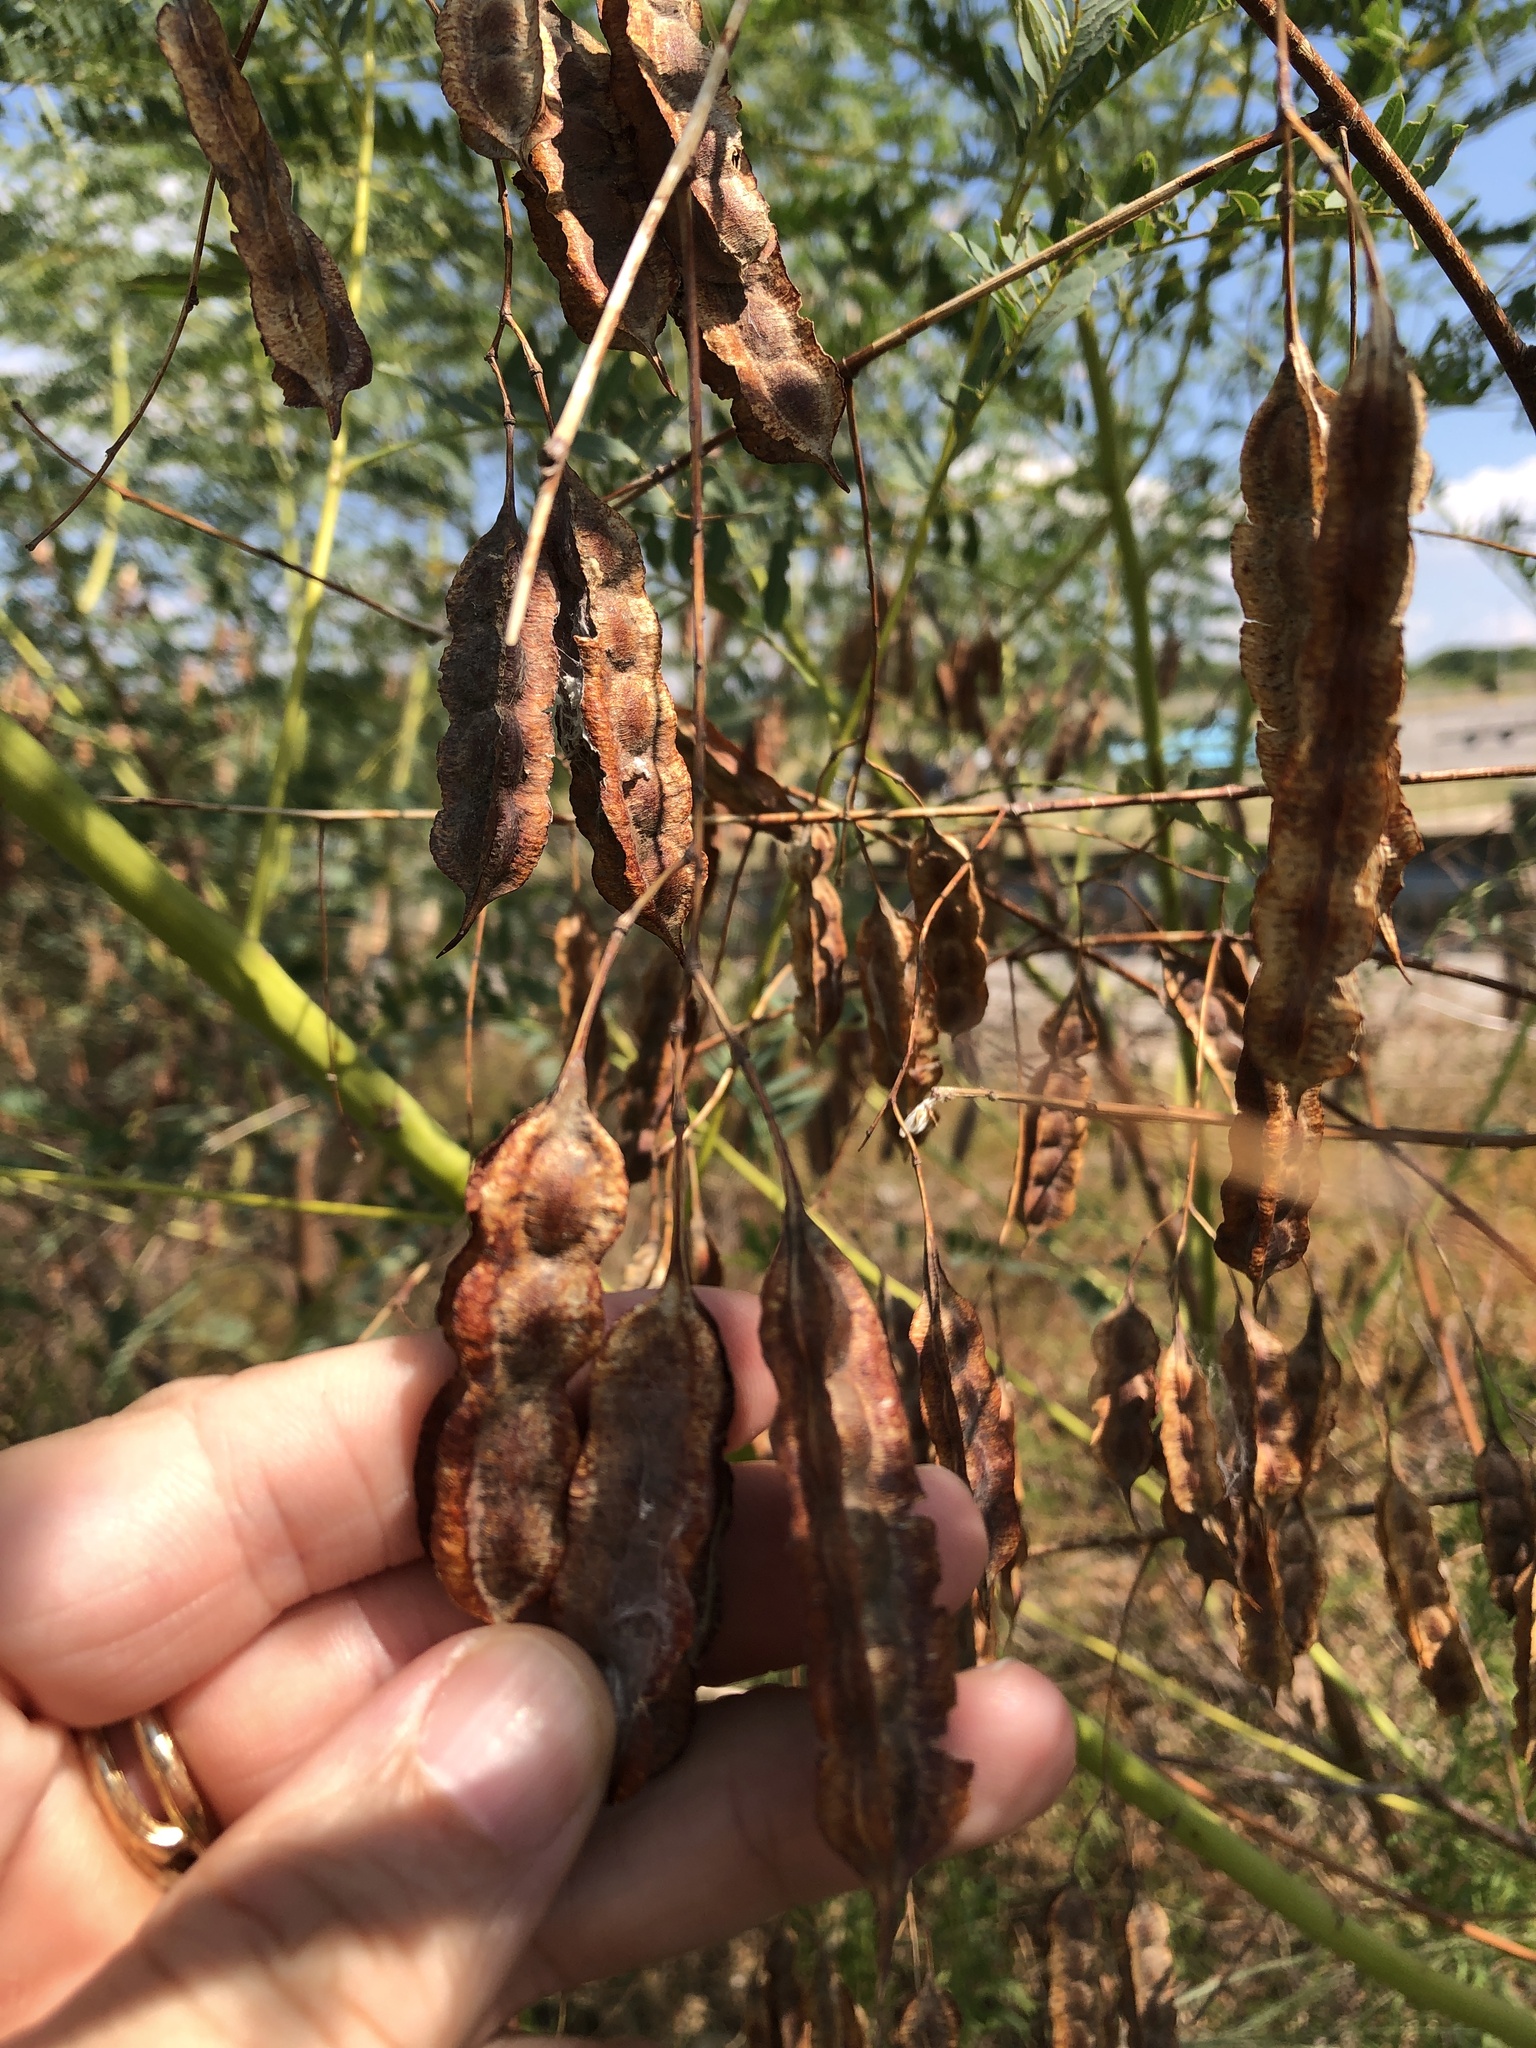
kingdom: Plantae
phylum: Tracheophyta
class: Magnoliopsida
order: Fabales
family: Fabaceae
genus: Sesbania
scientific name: Sesbania drummondii
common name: Poison-bean
